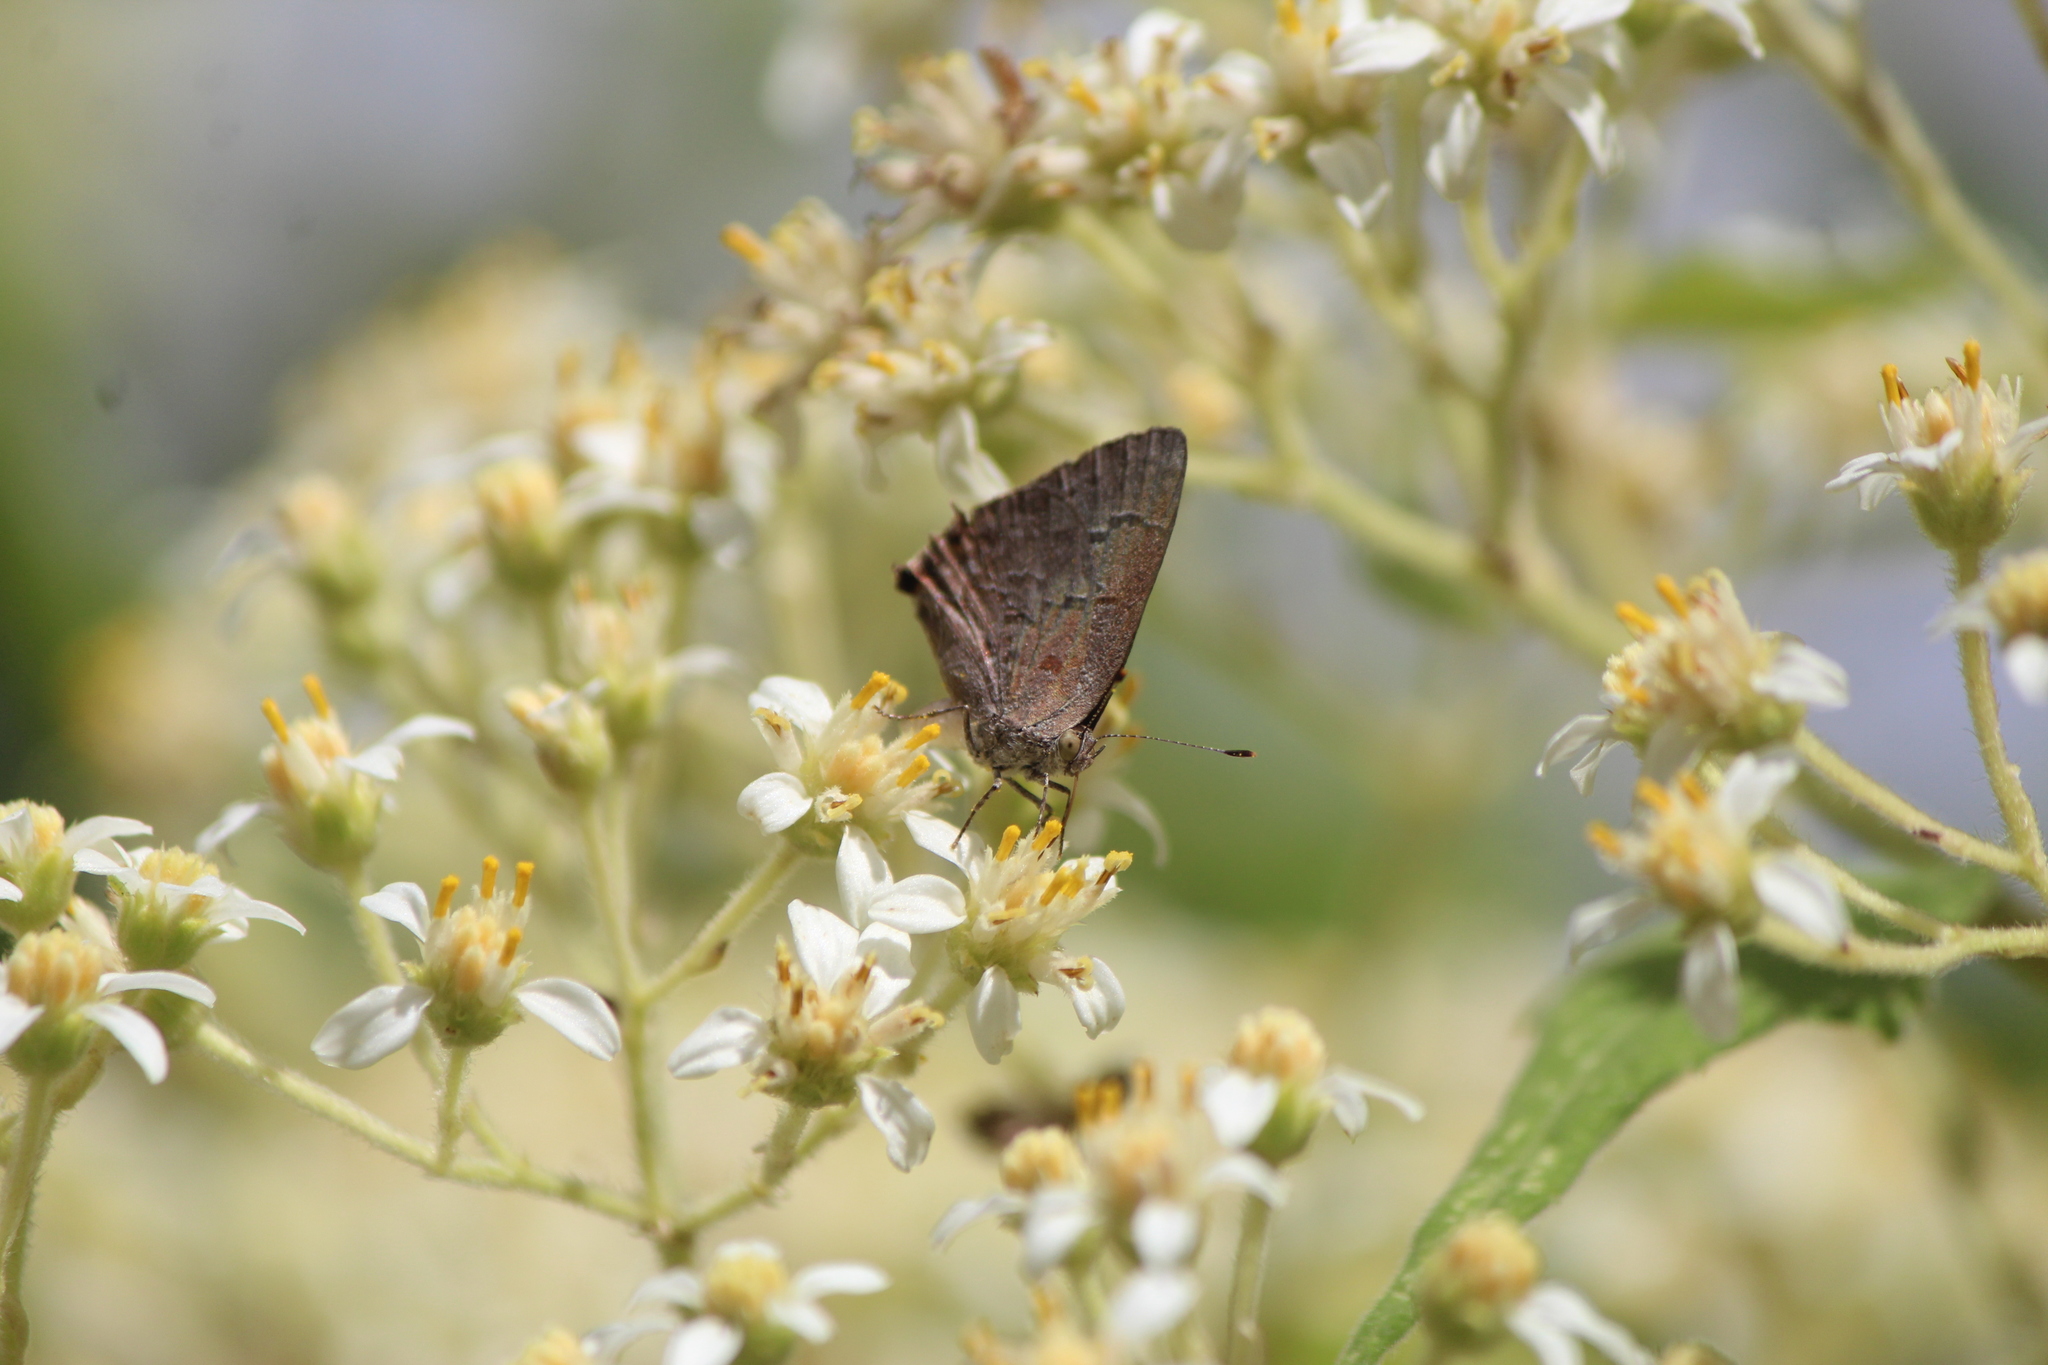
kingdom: Animalia
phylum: Arthropoda
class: Insecta
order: Lepidoptera
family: Lycaenidae
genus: Ministrymon
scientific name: Ministrymon leda
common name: Leda ministreak
